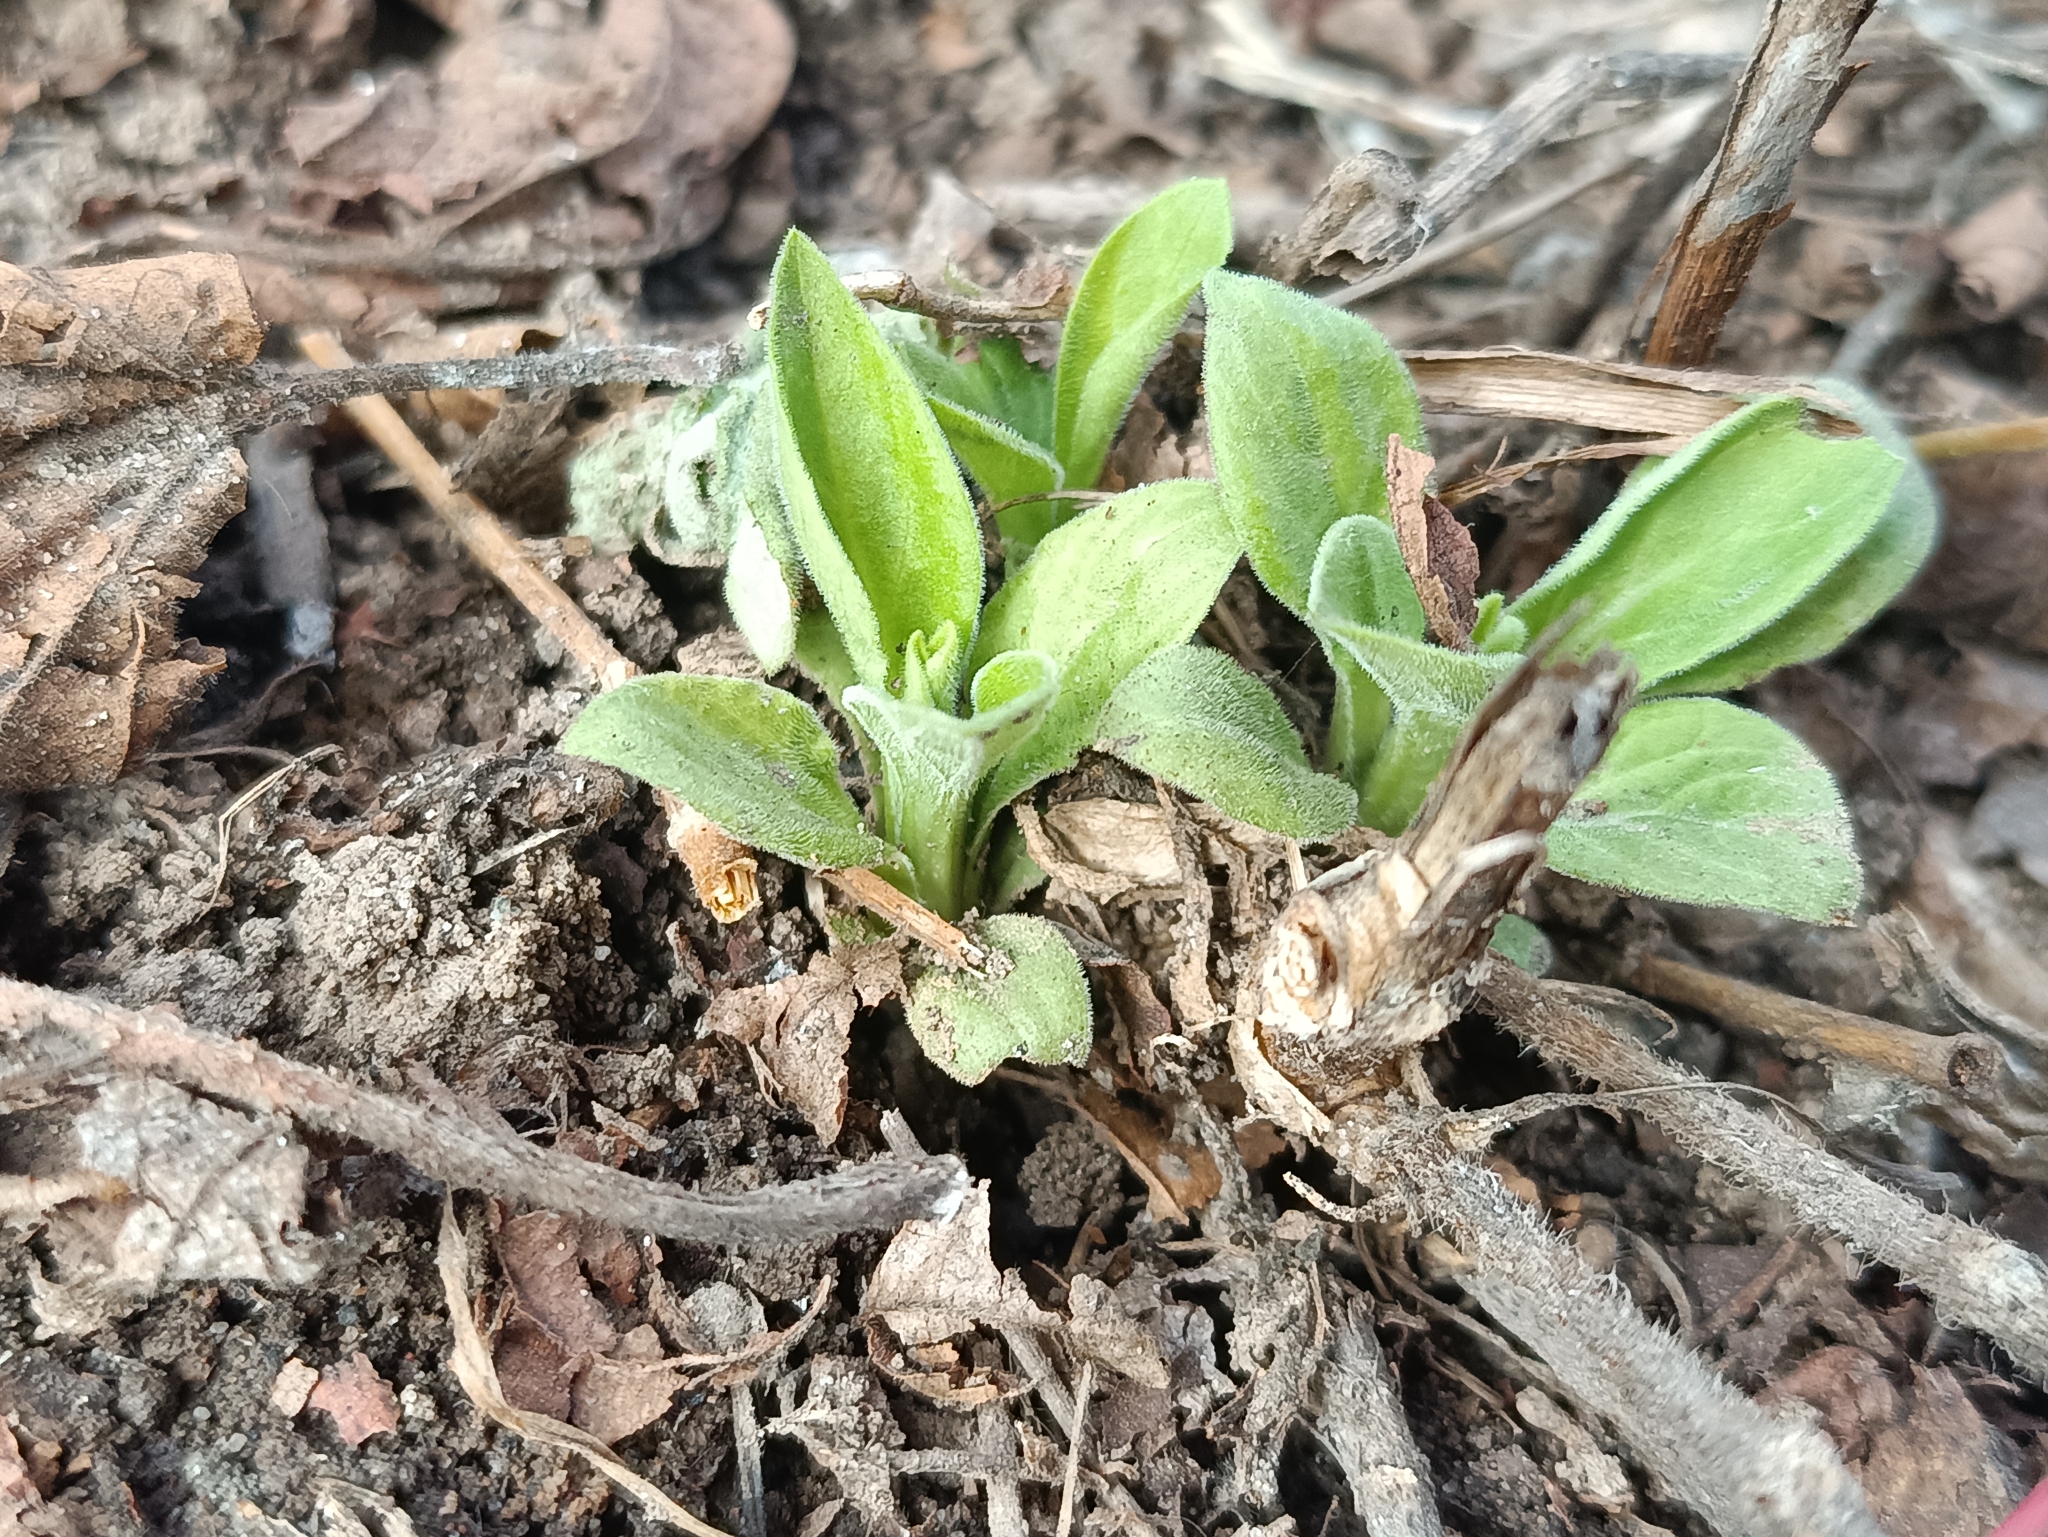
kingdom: Plantae
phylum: Tracheophyta
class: Magnoliopsida
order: Caryophyllales
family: Caryophyllaceae
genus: Silene
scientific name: Silene latifolia
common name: White campion
